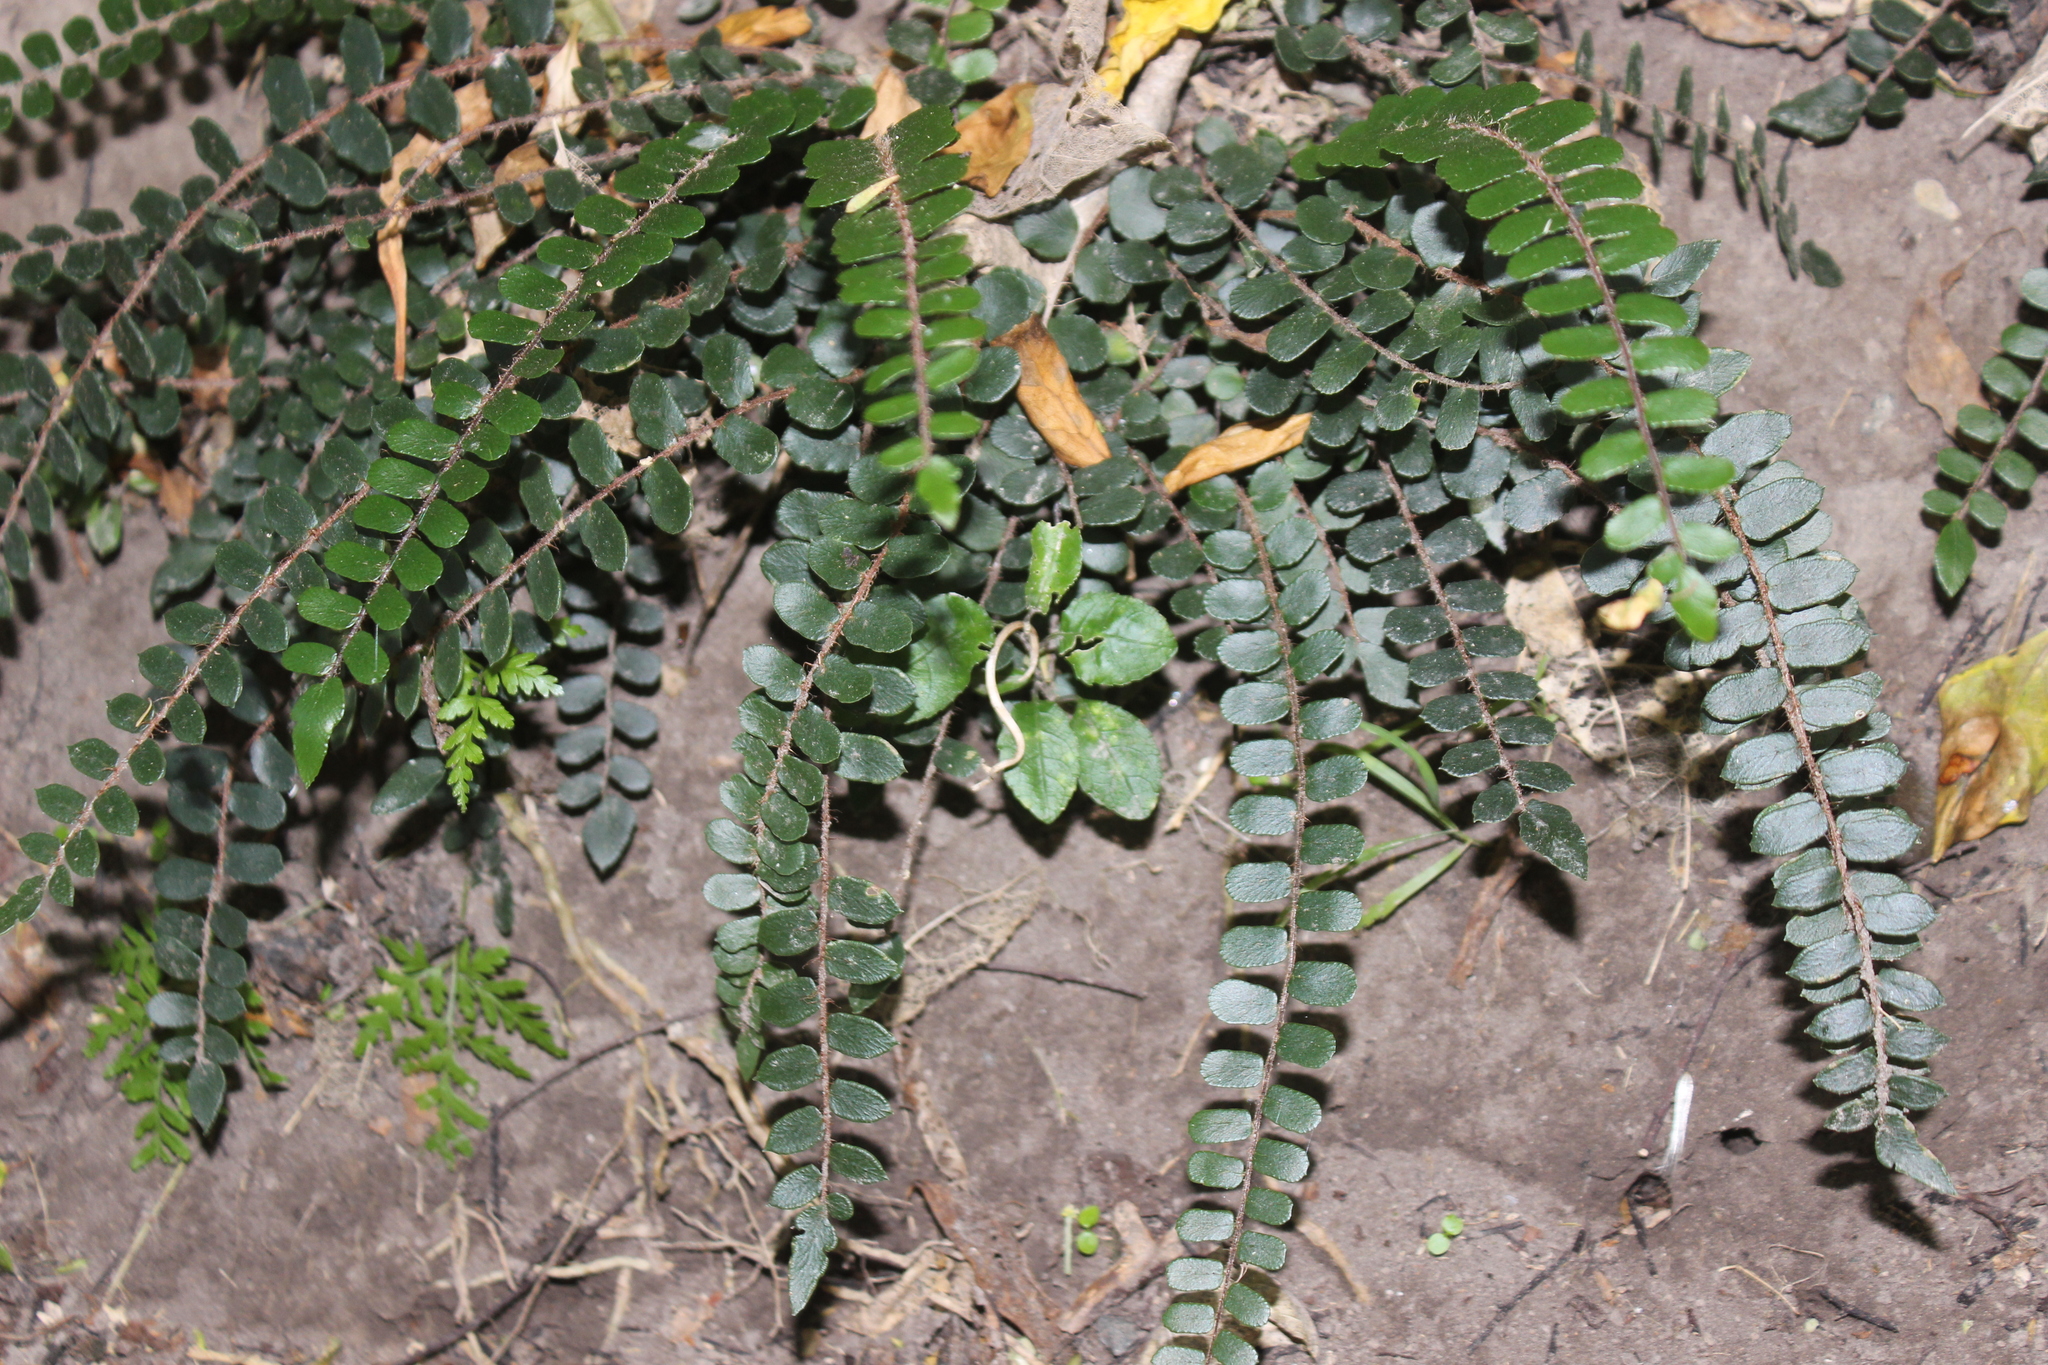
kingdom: Plantae
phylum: Tracheophyta
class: Polypodiopsida
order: Polypodiales
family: Pteridaceae
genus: Pellaea
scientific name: Pellaea rotundifolia
